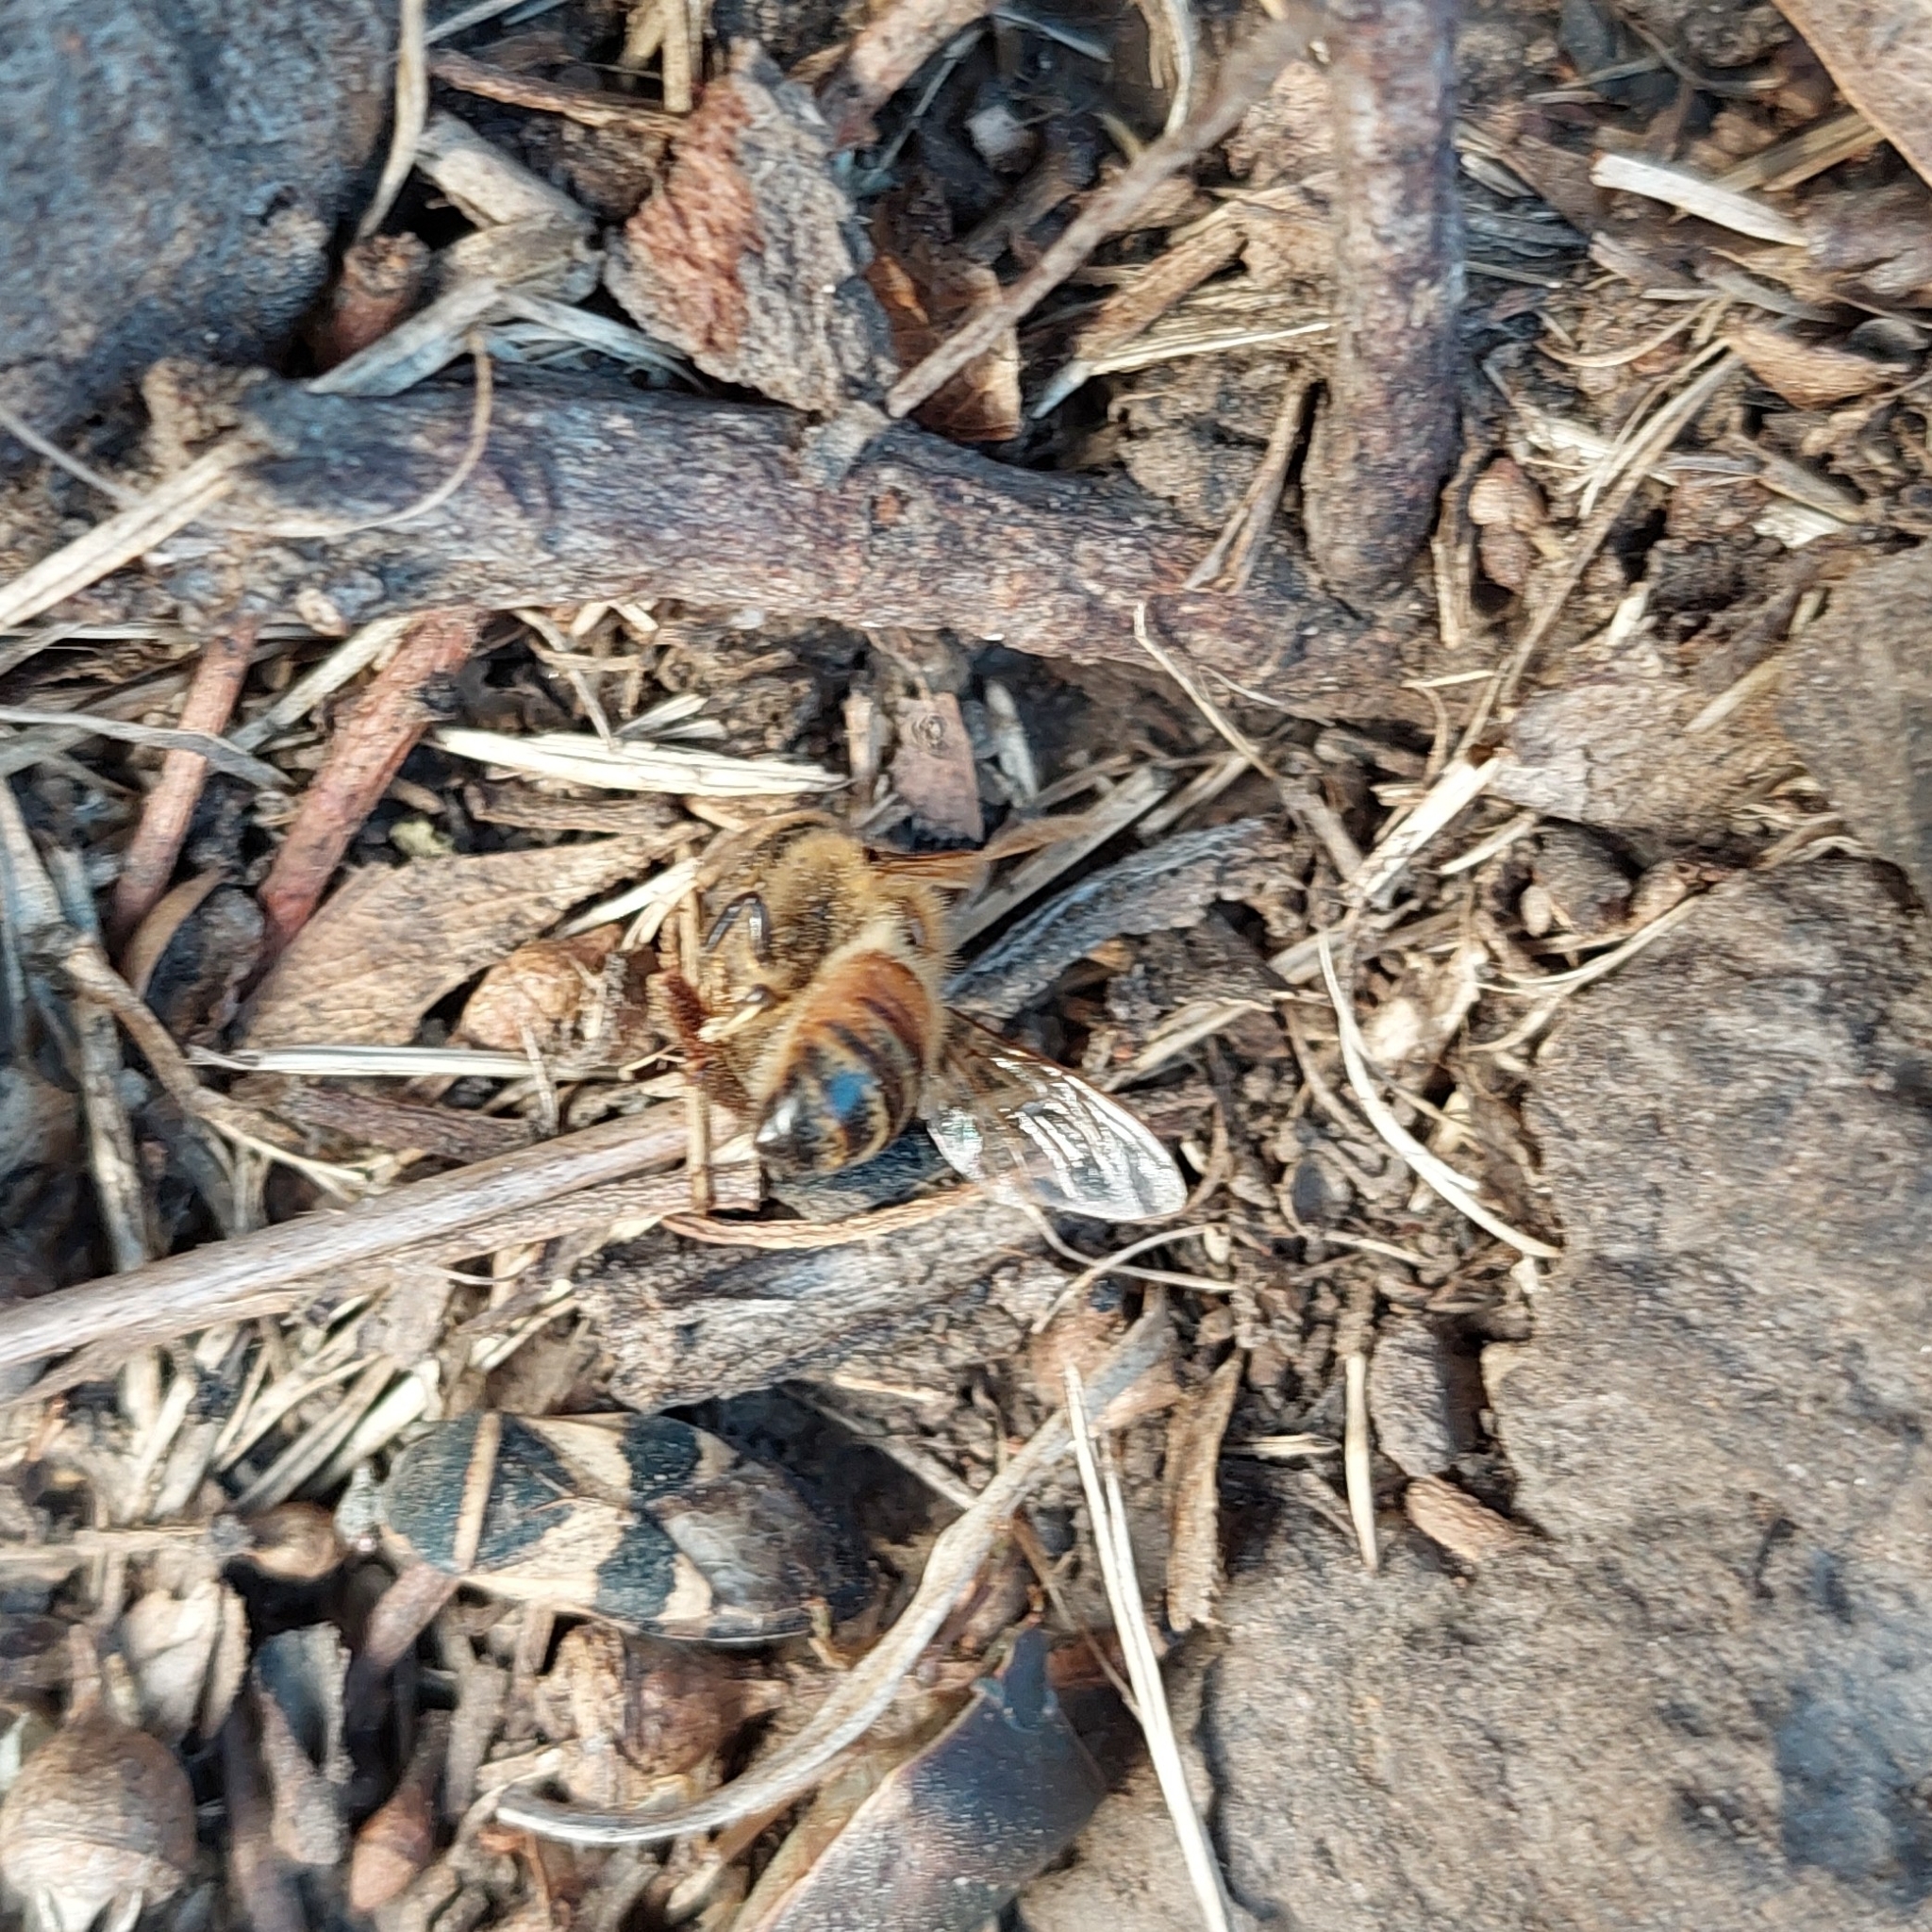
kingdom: Animalia
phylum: Arthropoda
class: Insecta
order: Hymenoptera
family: Apidae
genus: Apis
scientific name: Apis mellifera
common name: Honey bee
